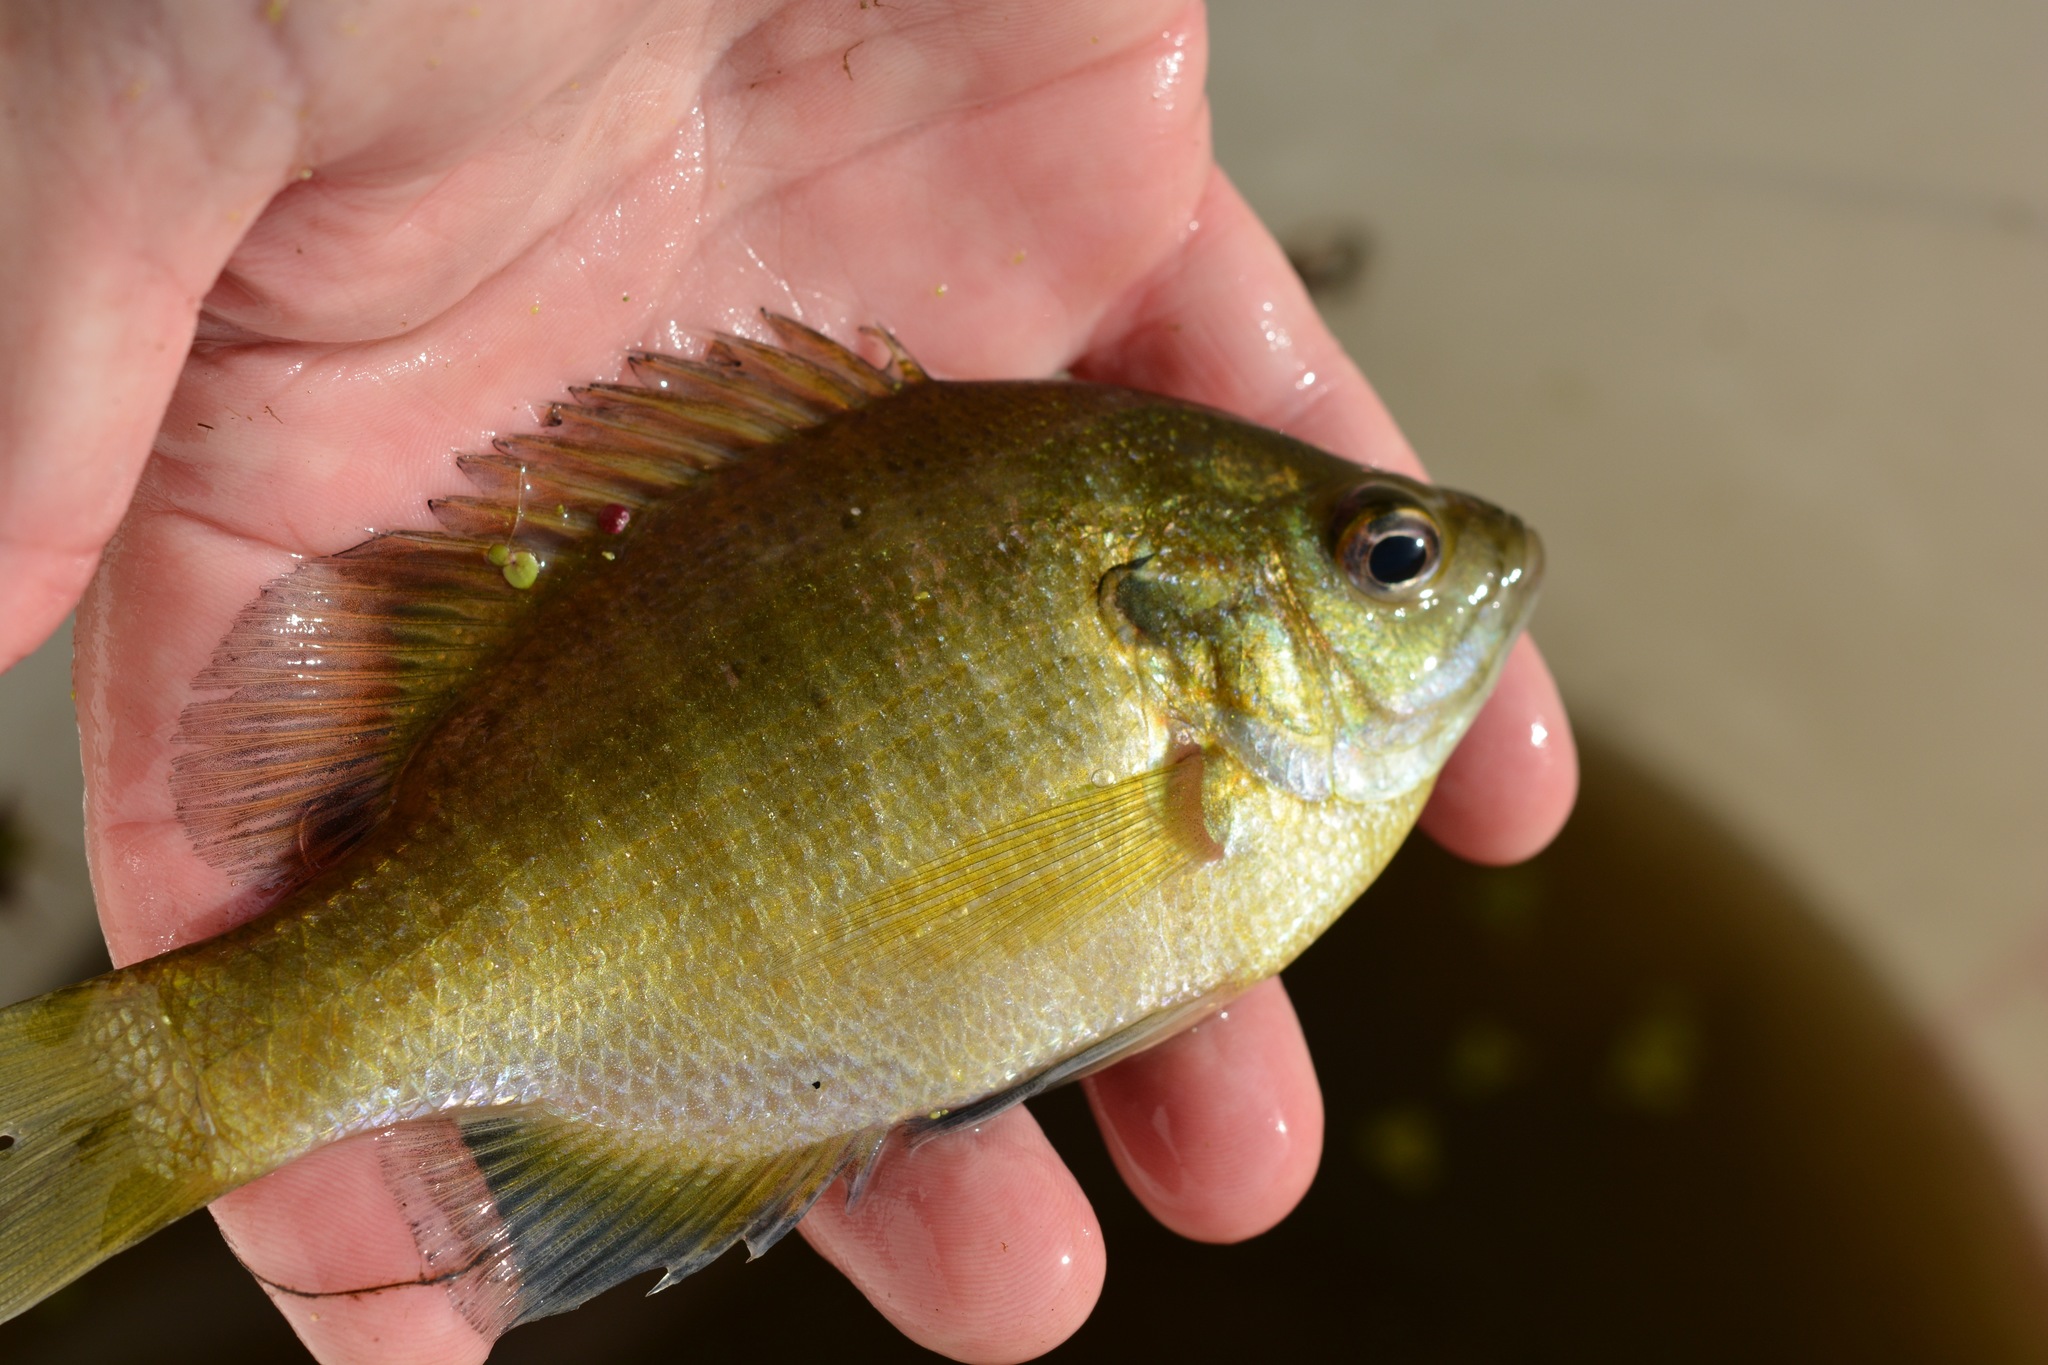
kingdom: Animalia
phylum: Chordata
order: Perciformes
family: Centrarchidae
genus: Lepomis
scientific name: Lepomis macrochirus
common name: Bluegill
